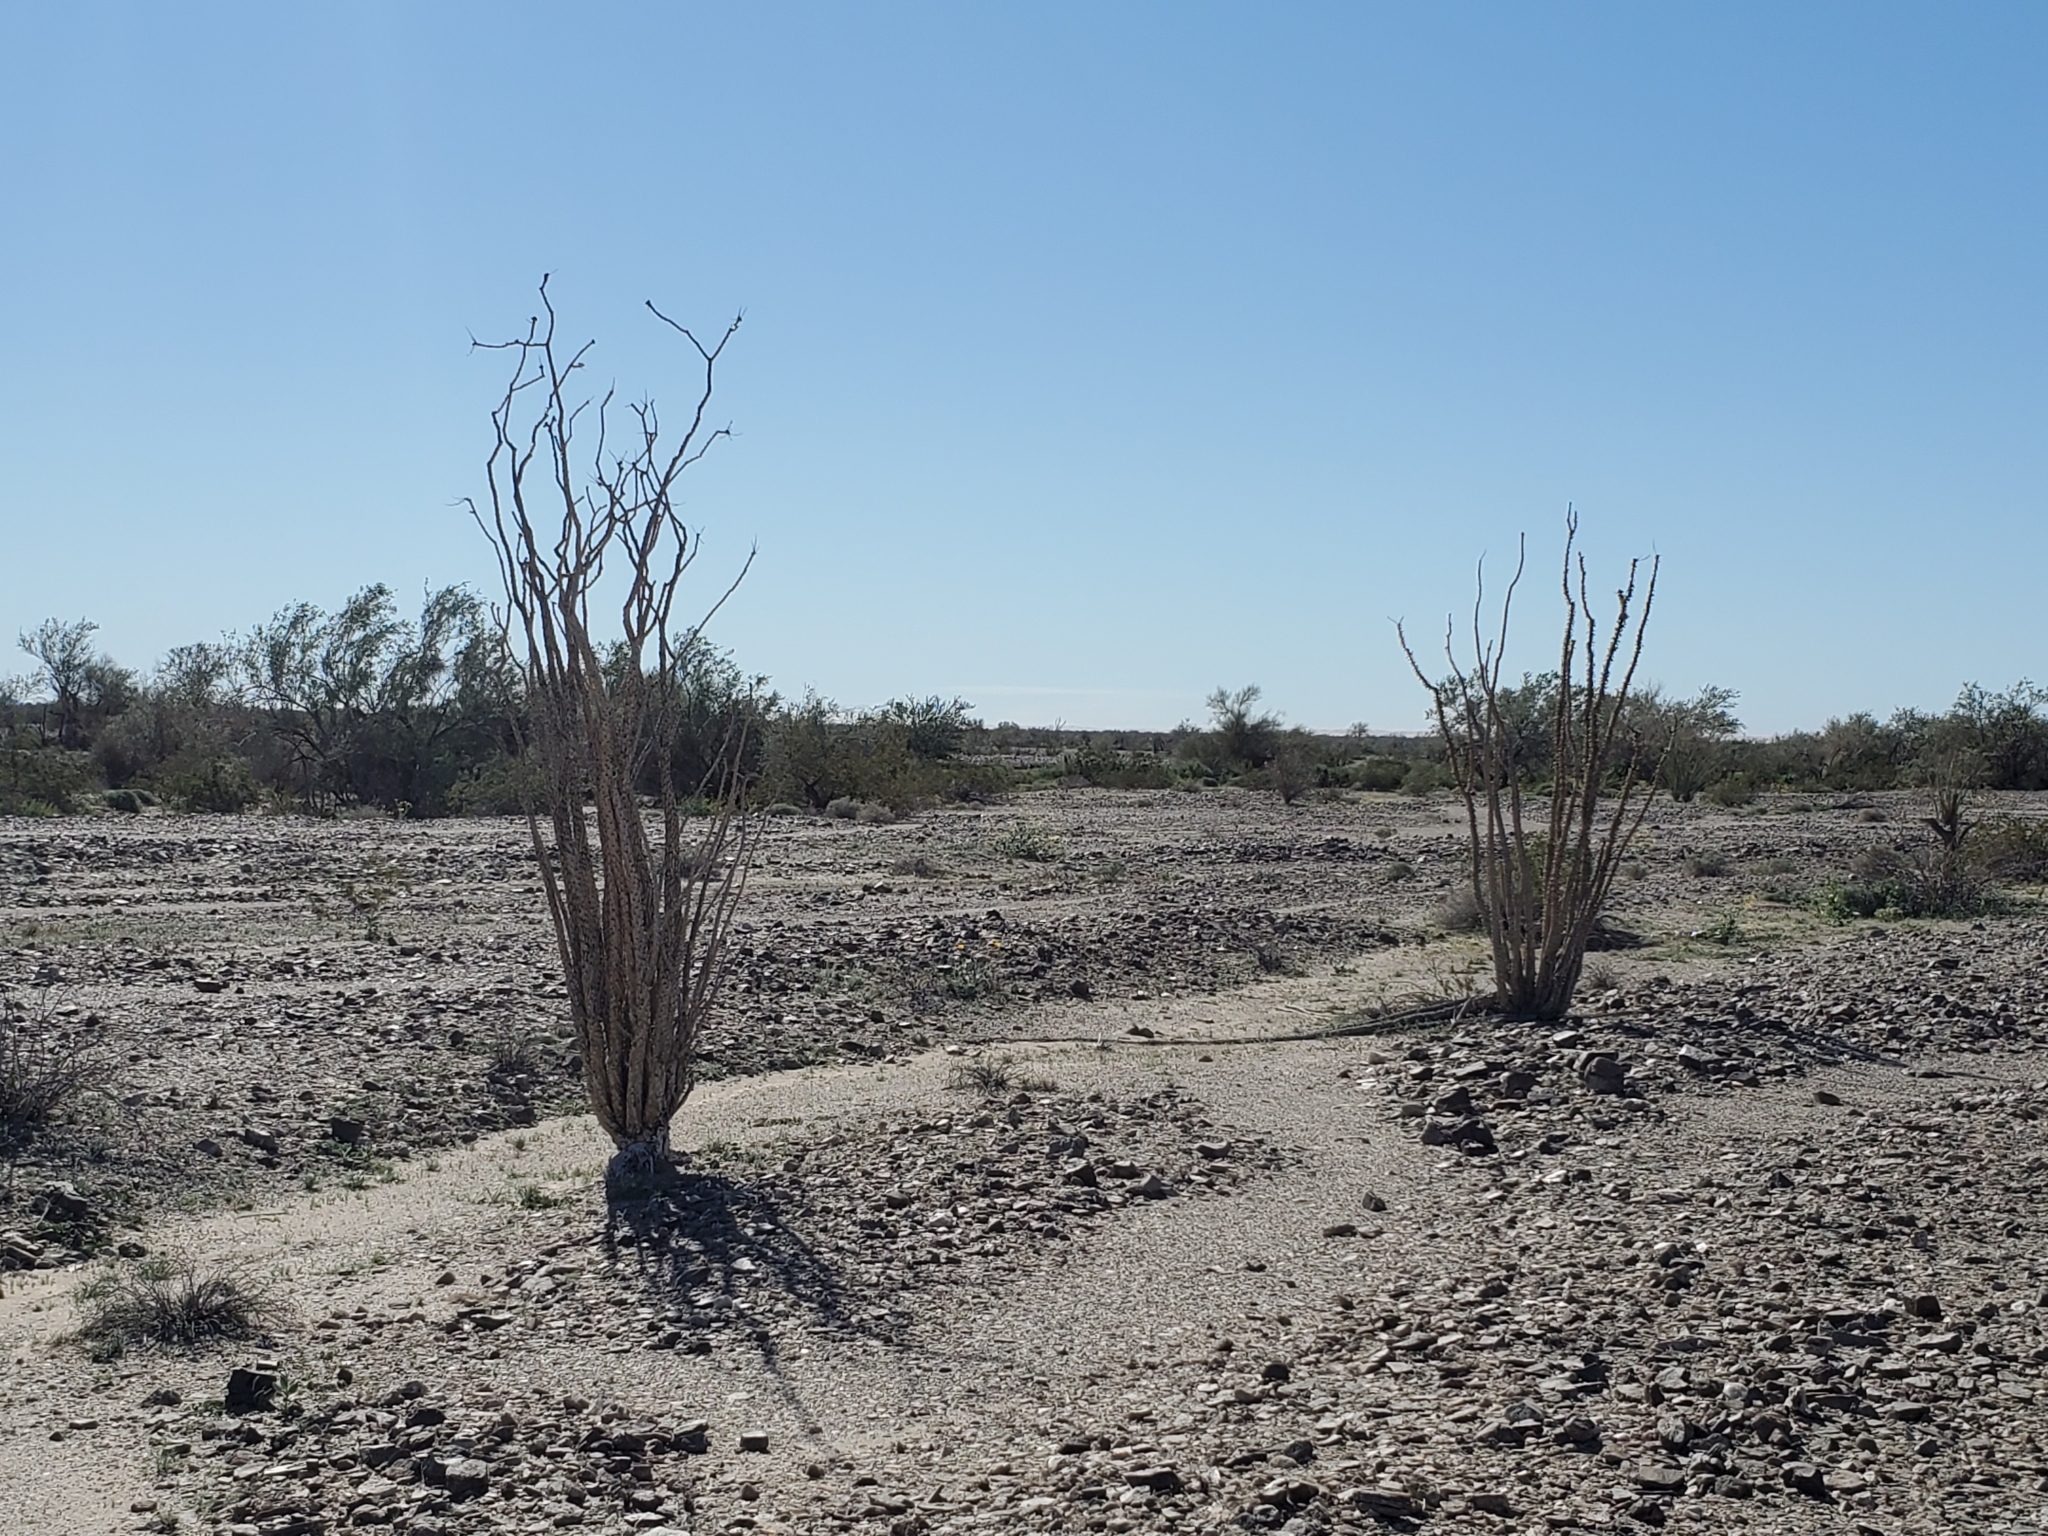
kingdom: Plantae
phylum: Tracheophyta
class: Magnoliopsida
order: Ericales
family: Fouquieriaceae
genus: Fouquieria
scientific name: Fouquieria splendens
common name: Vine-cactus
